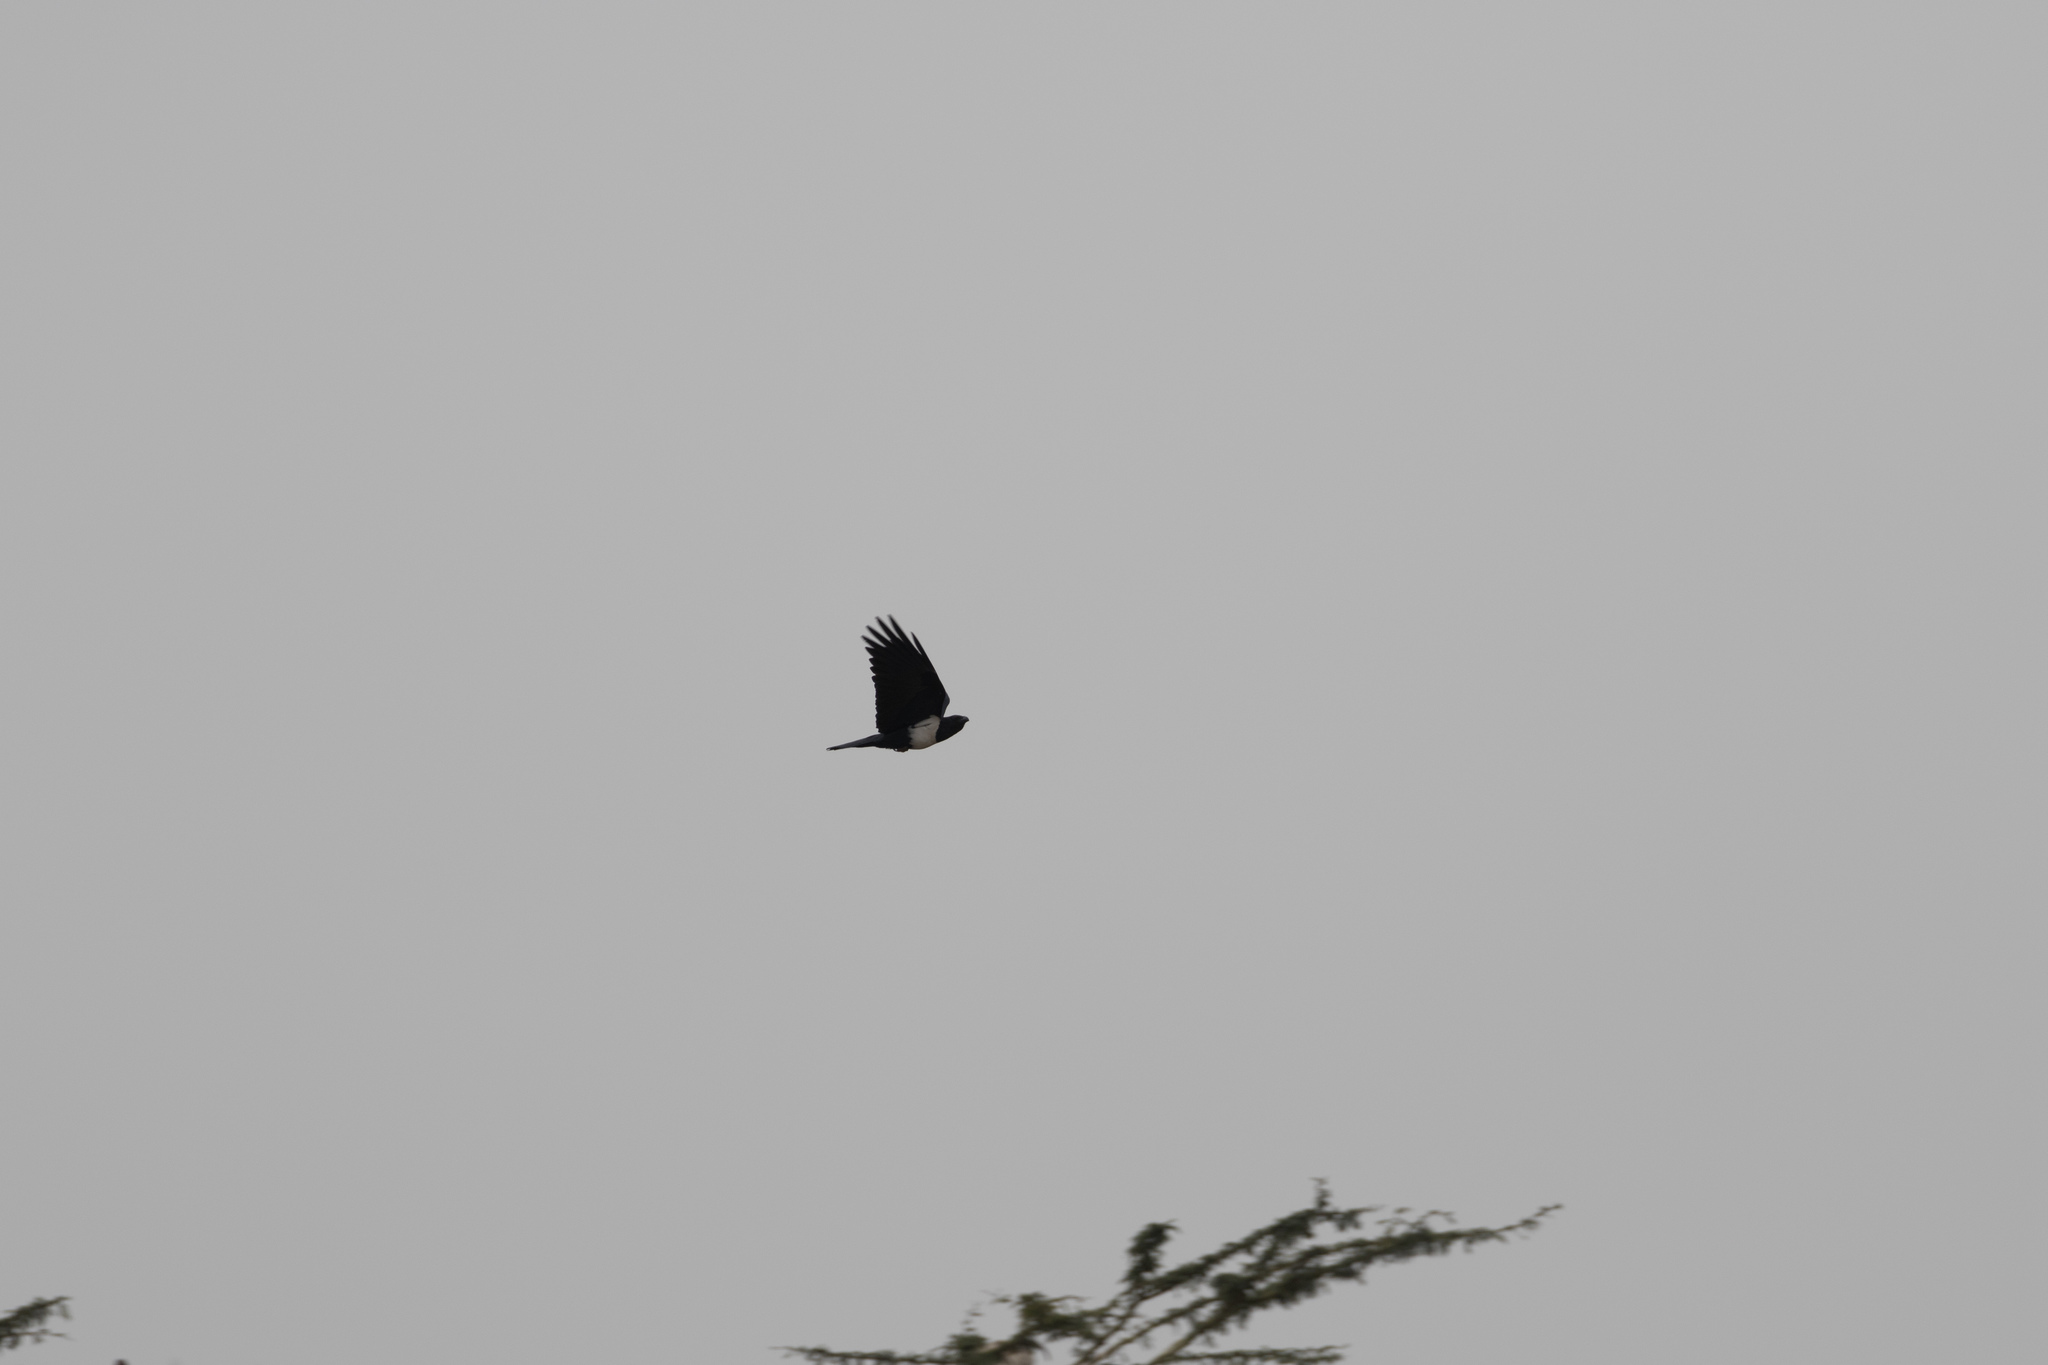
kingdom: Animalia
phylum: Chordata
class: Aves
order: Passeriformes
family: Corvidae
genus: Corvus
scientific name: Corvus albus
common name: Pied crow
